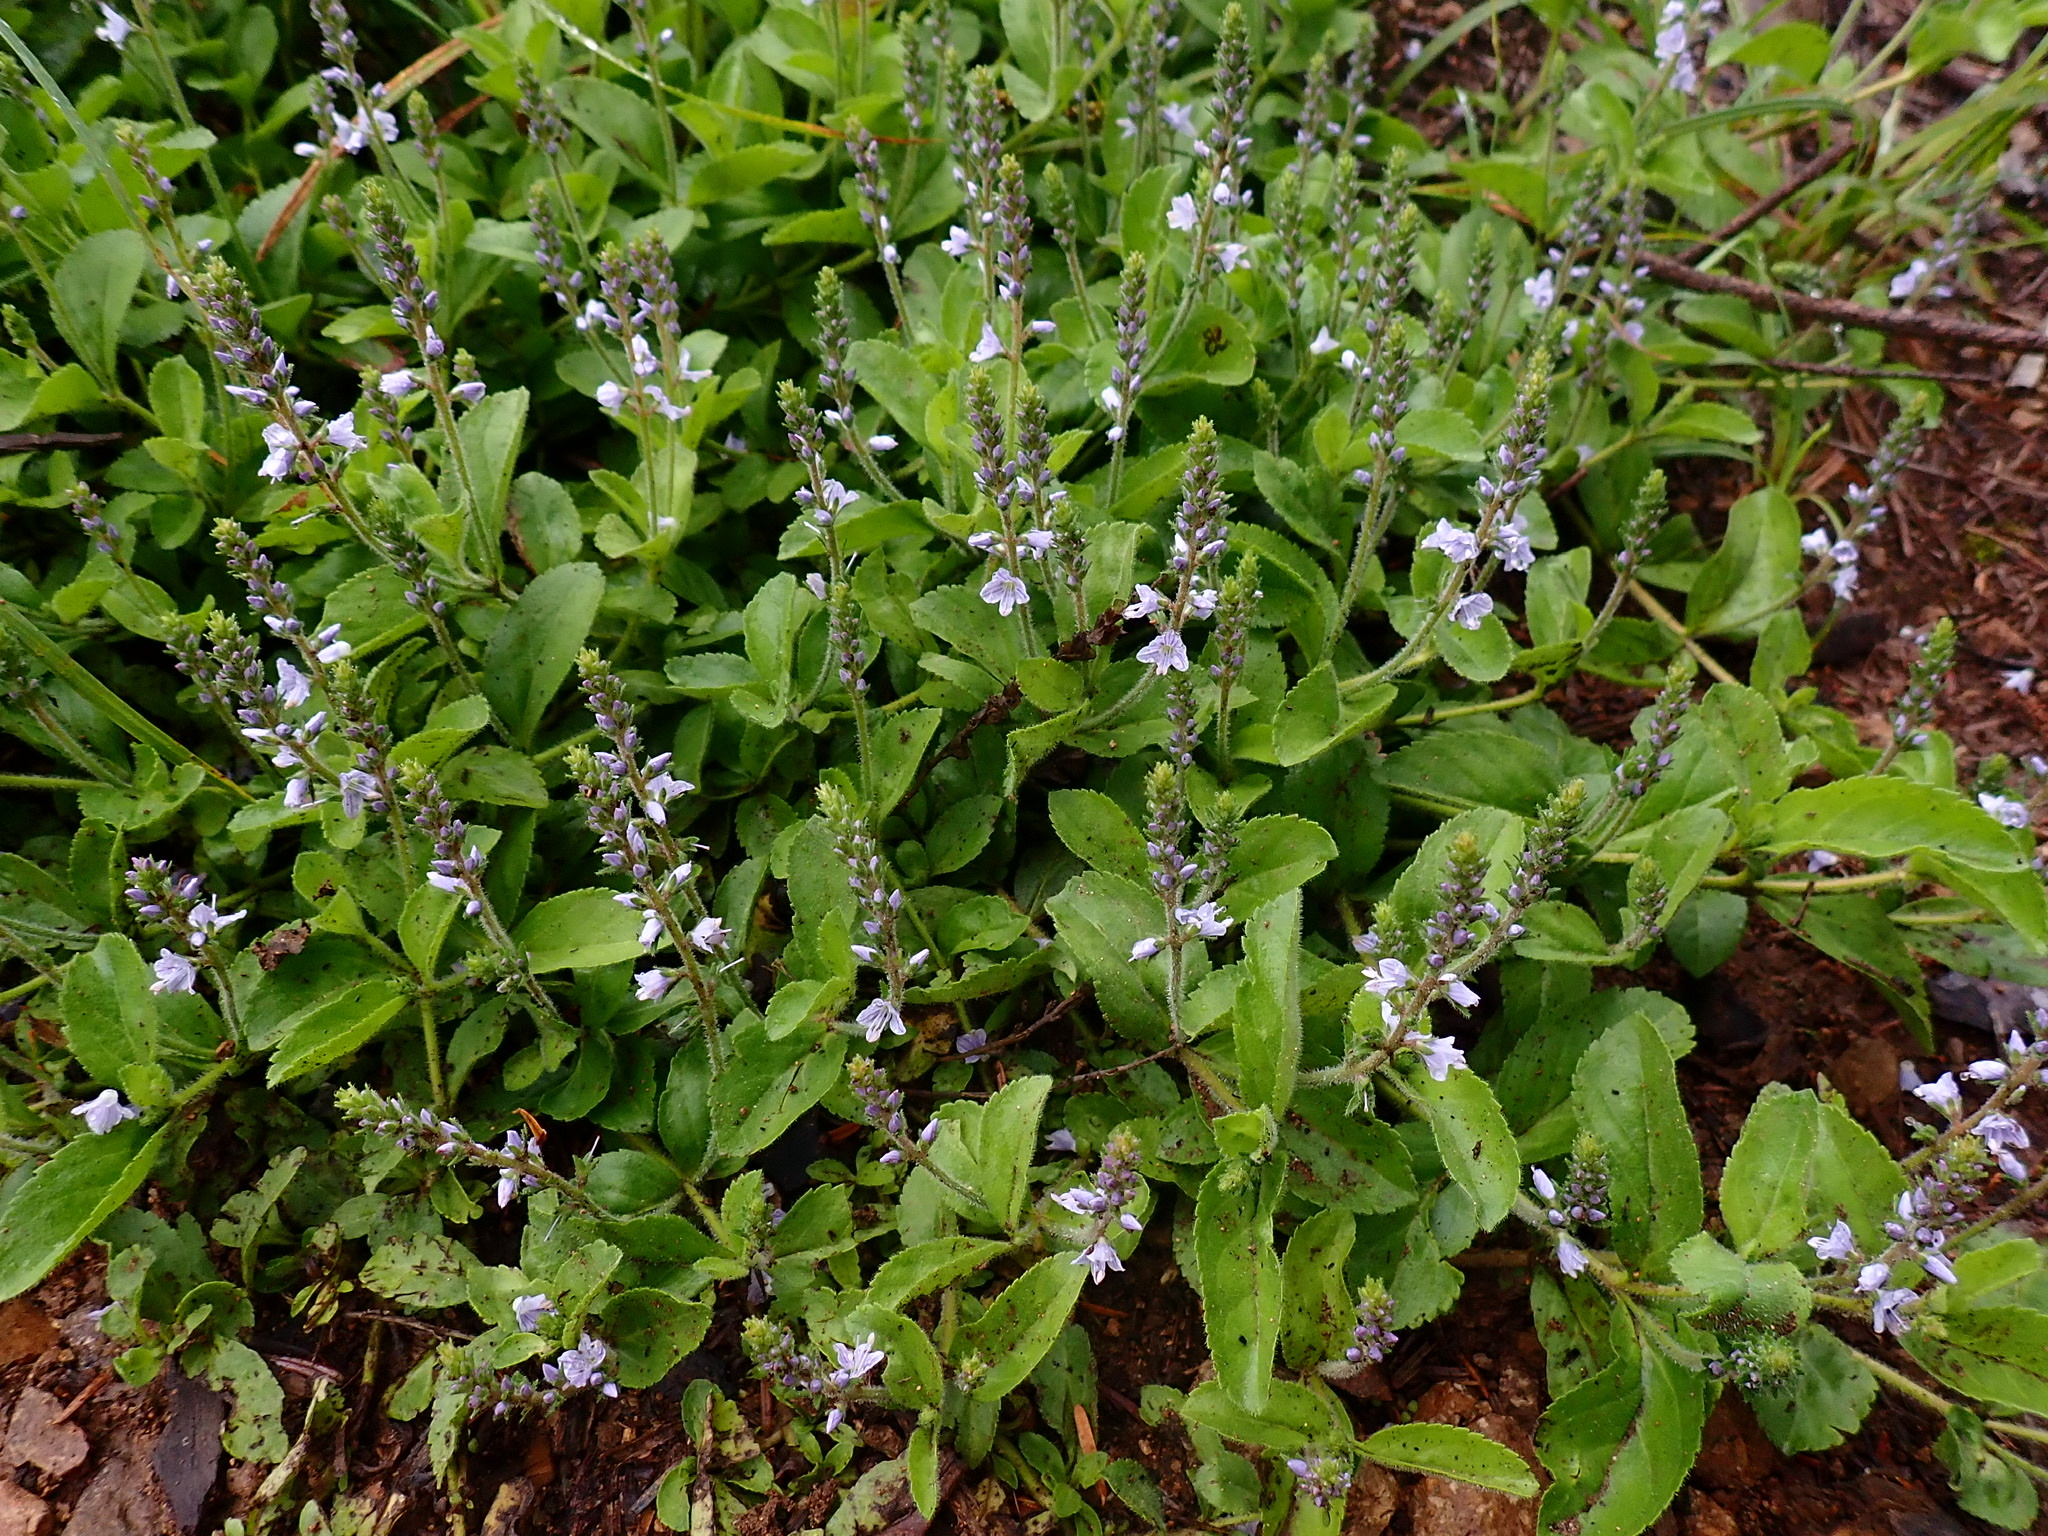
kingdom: Plantae
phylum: Tracheophyta
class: Magnoliopsida
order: Lamiales
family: Plantaginaceae
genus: Veronica
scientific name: Veronica officinalis
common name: Common speedwell
